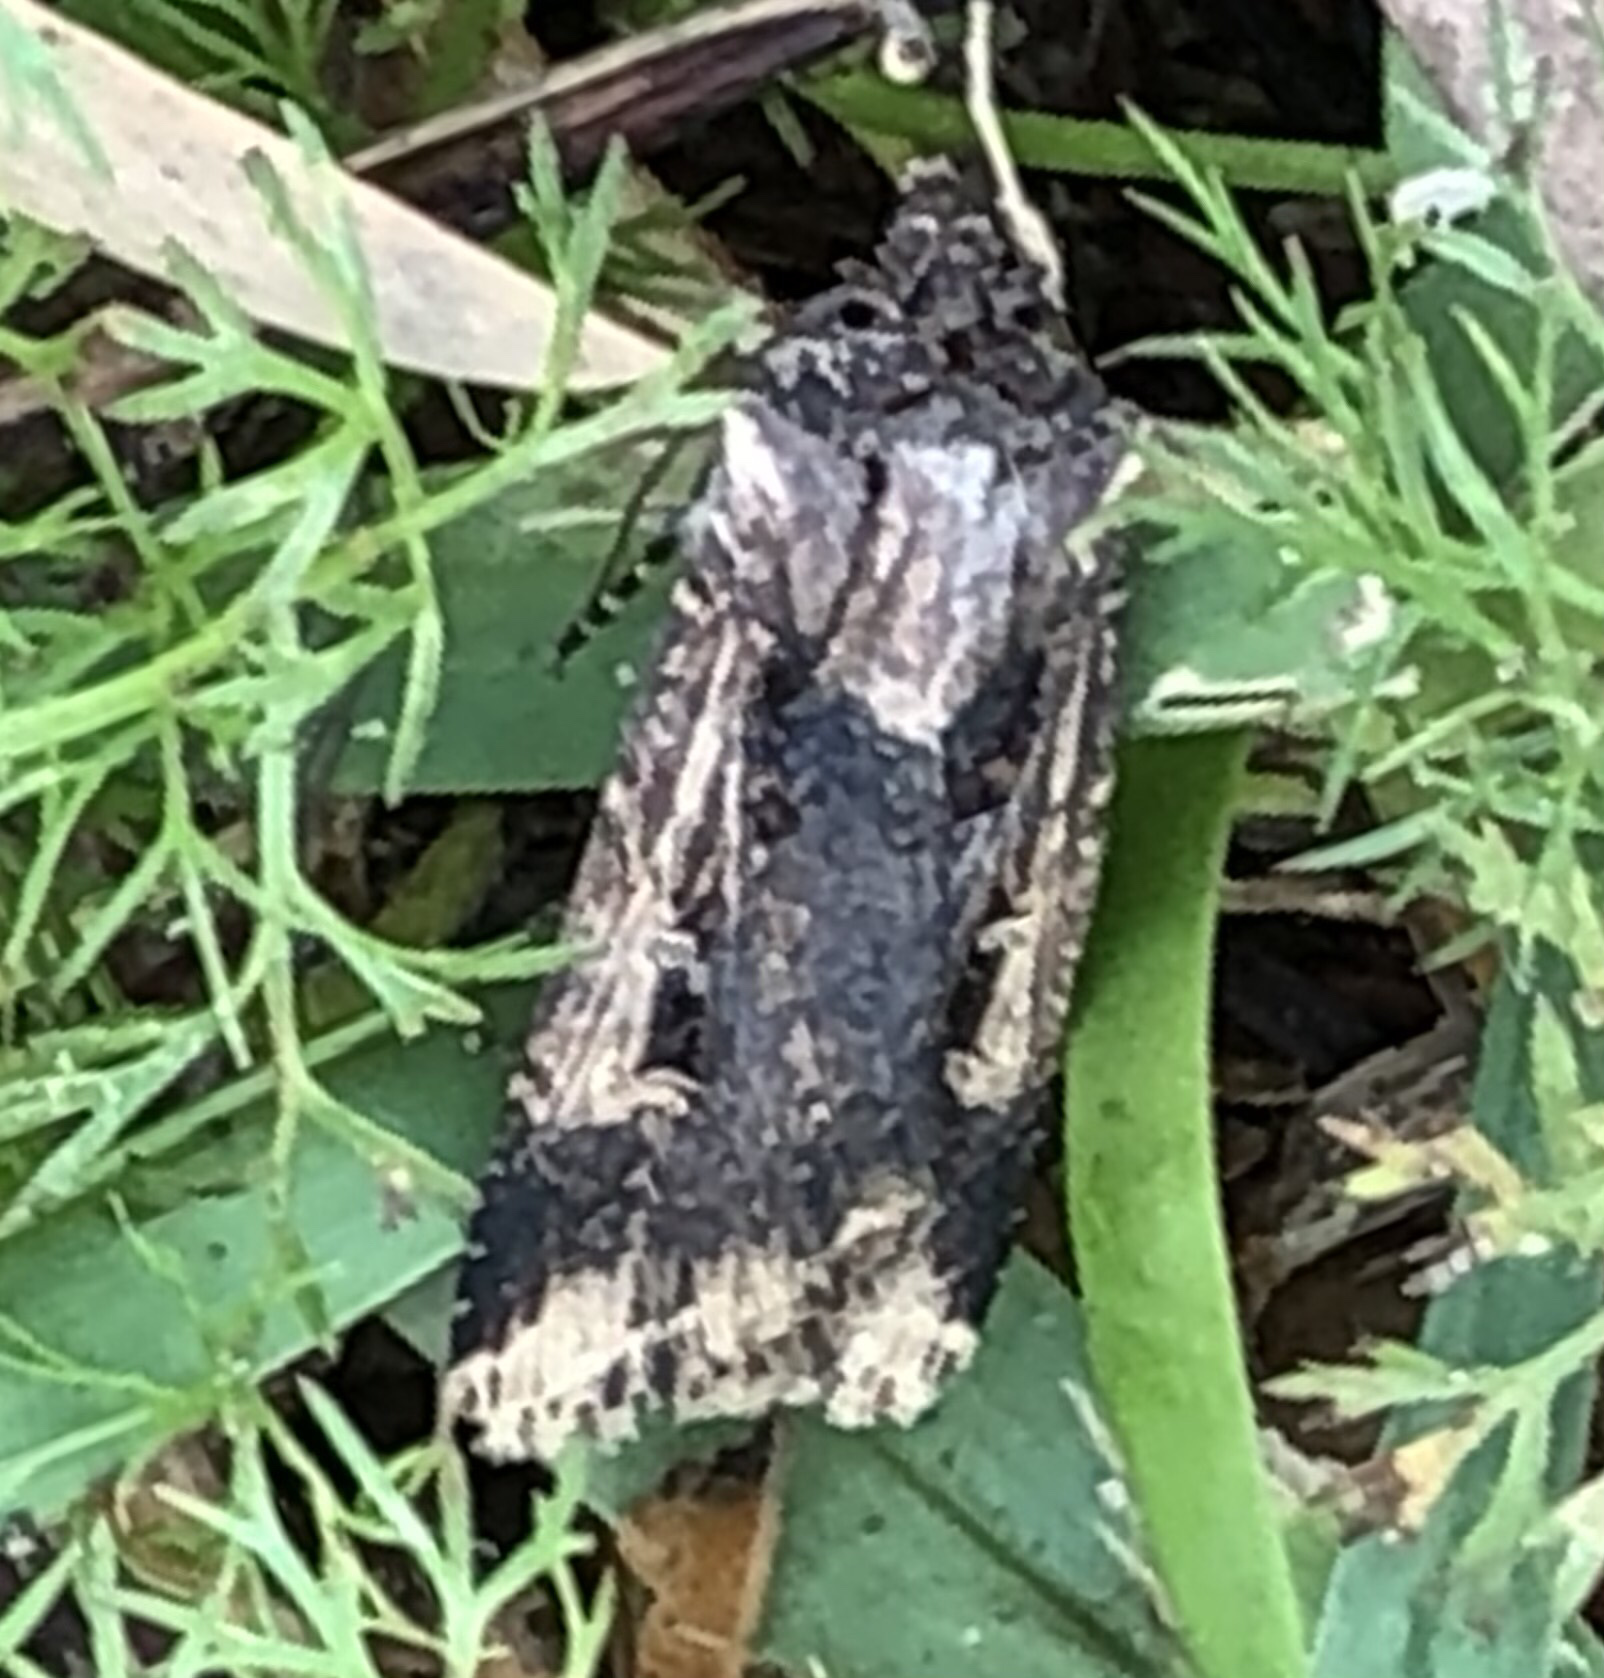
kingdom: Animalia
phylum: Arthropoda
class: Insecta
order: Lepidoptera
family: Noctuidae
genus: Feltia
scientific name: Feltia subterranea
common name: Granulate cutworm
